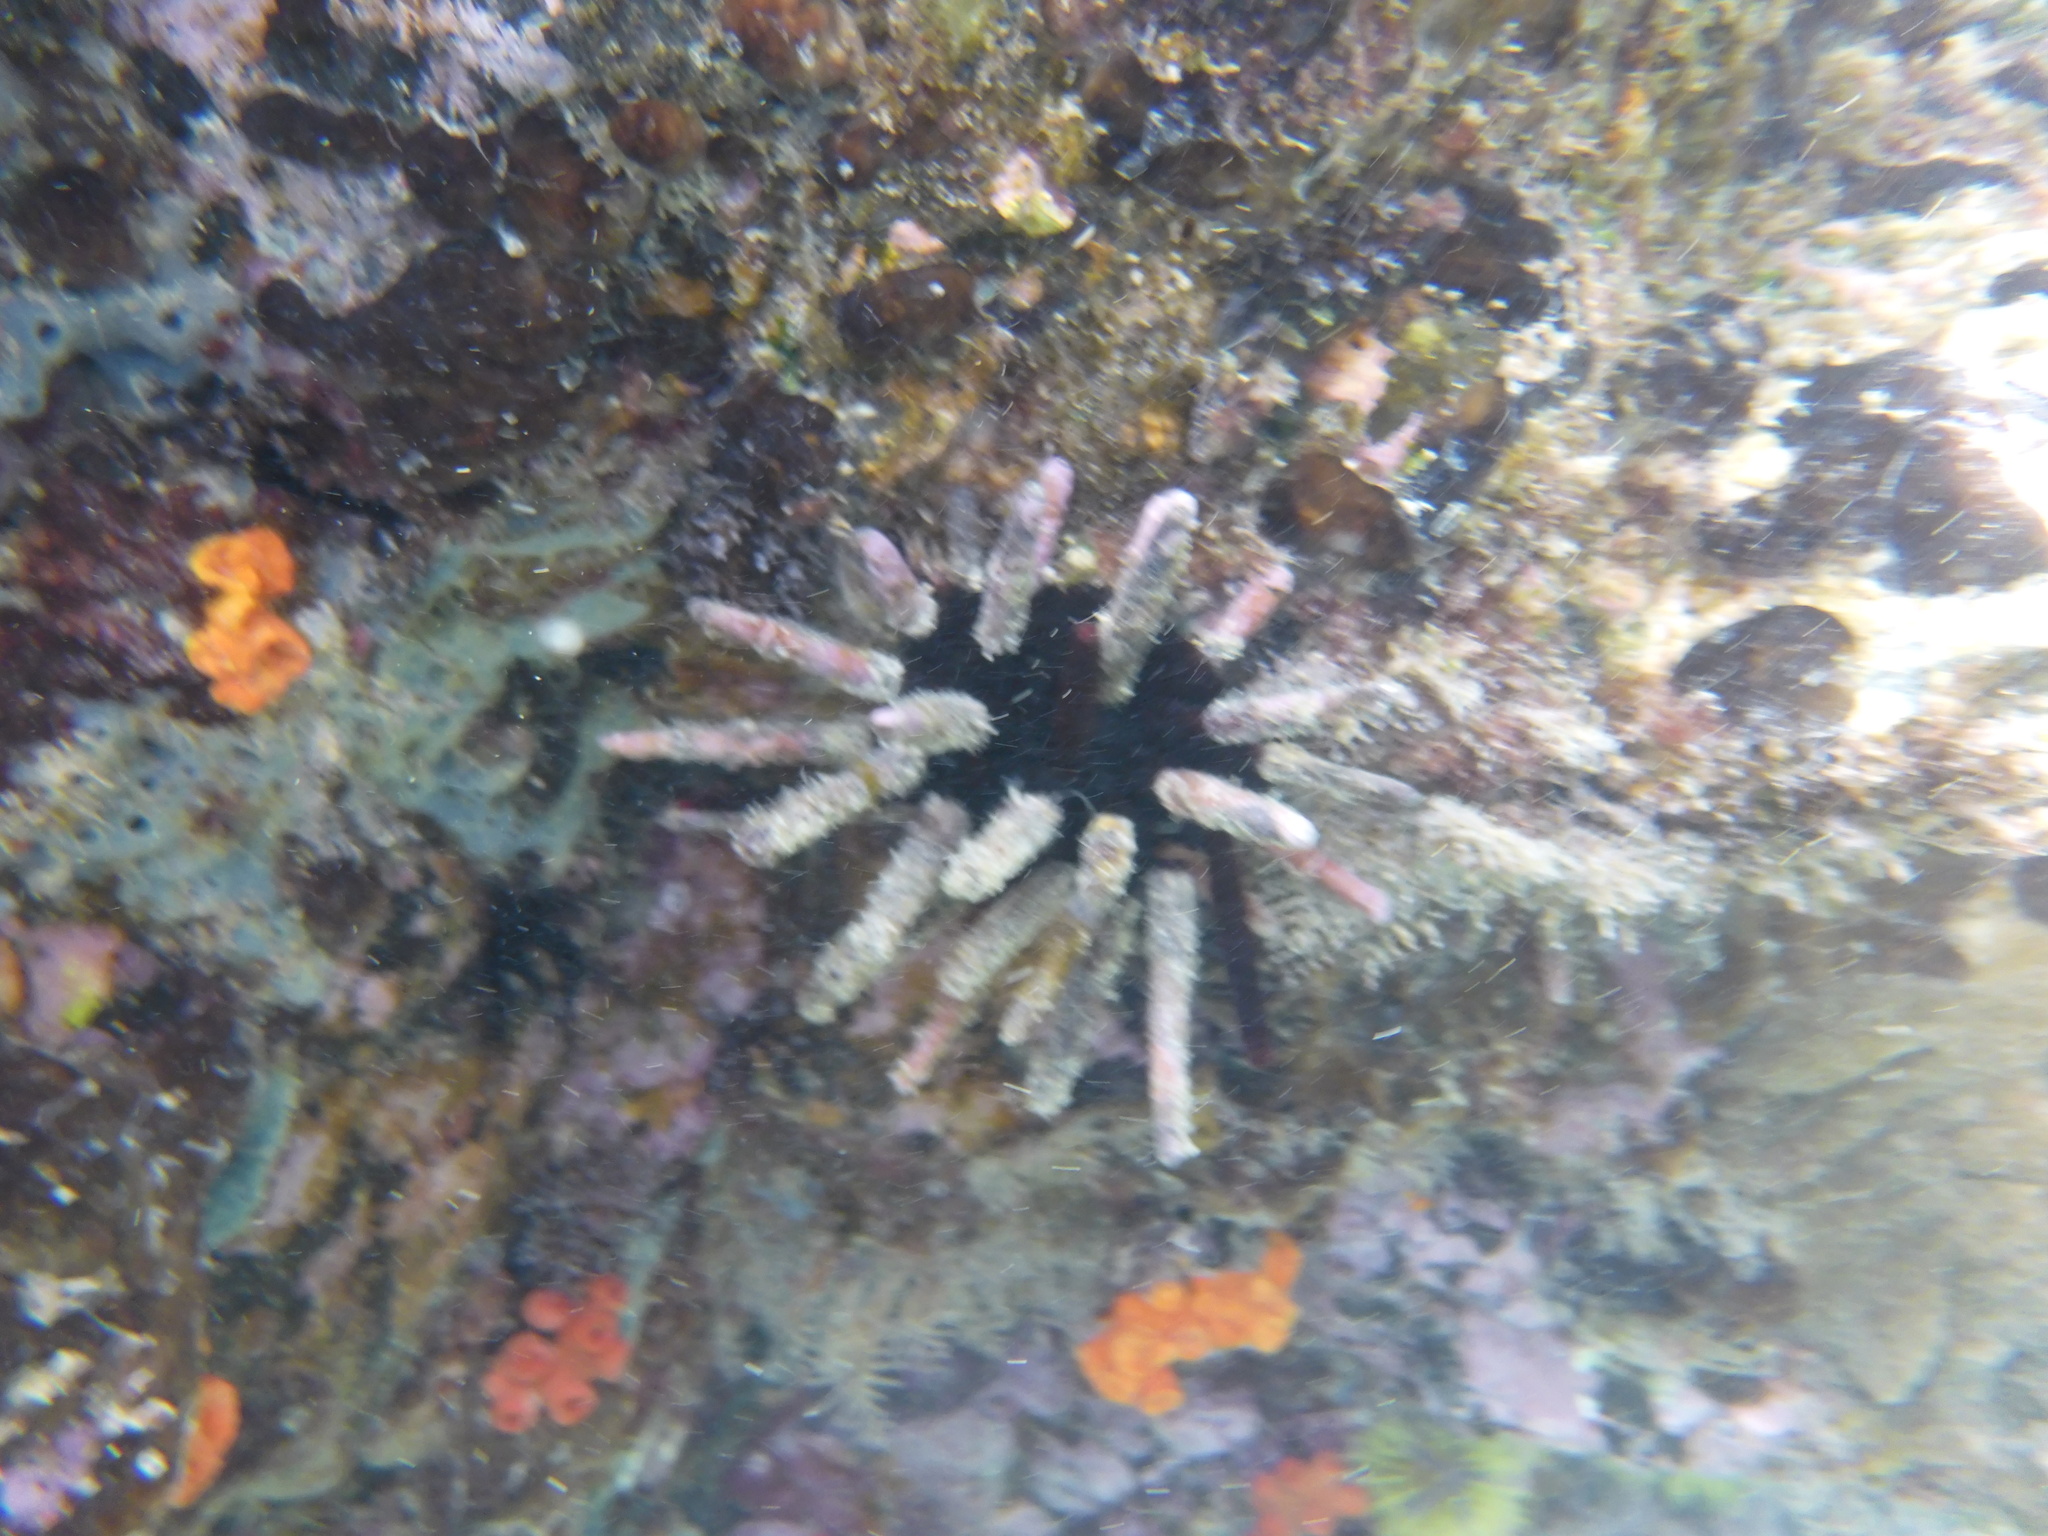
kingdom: Animalia
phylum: Echinodermata
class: Echinoidea
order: Cidaroida
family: Cidaridae
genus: Eucidaris
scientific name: Eucidaris galapagensis
